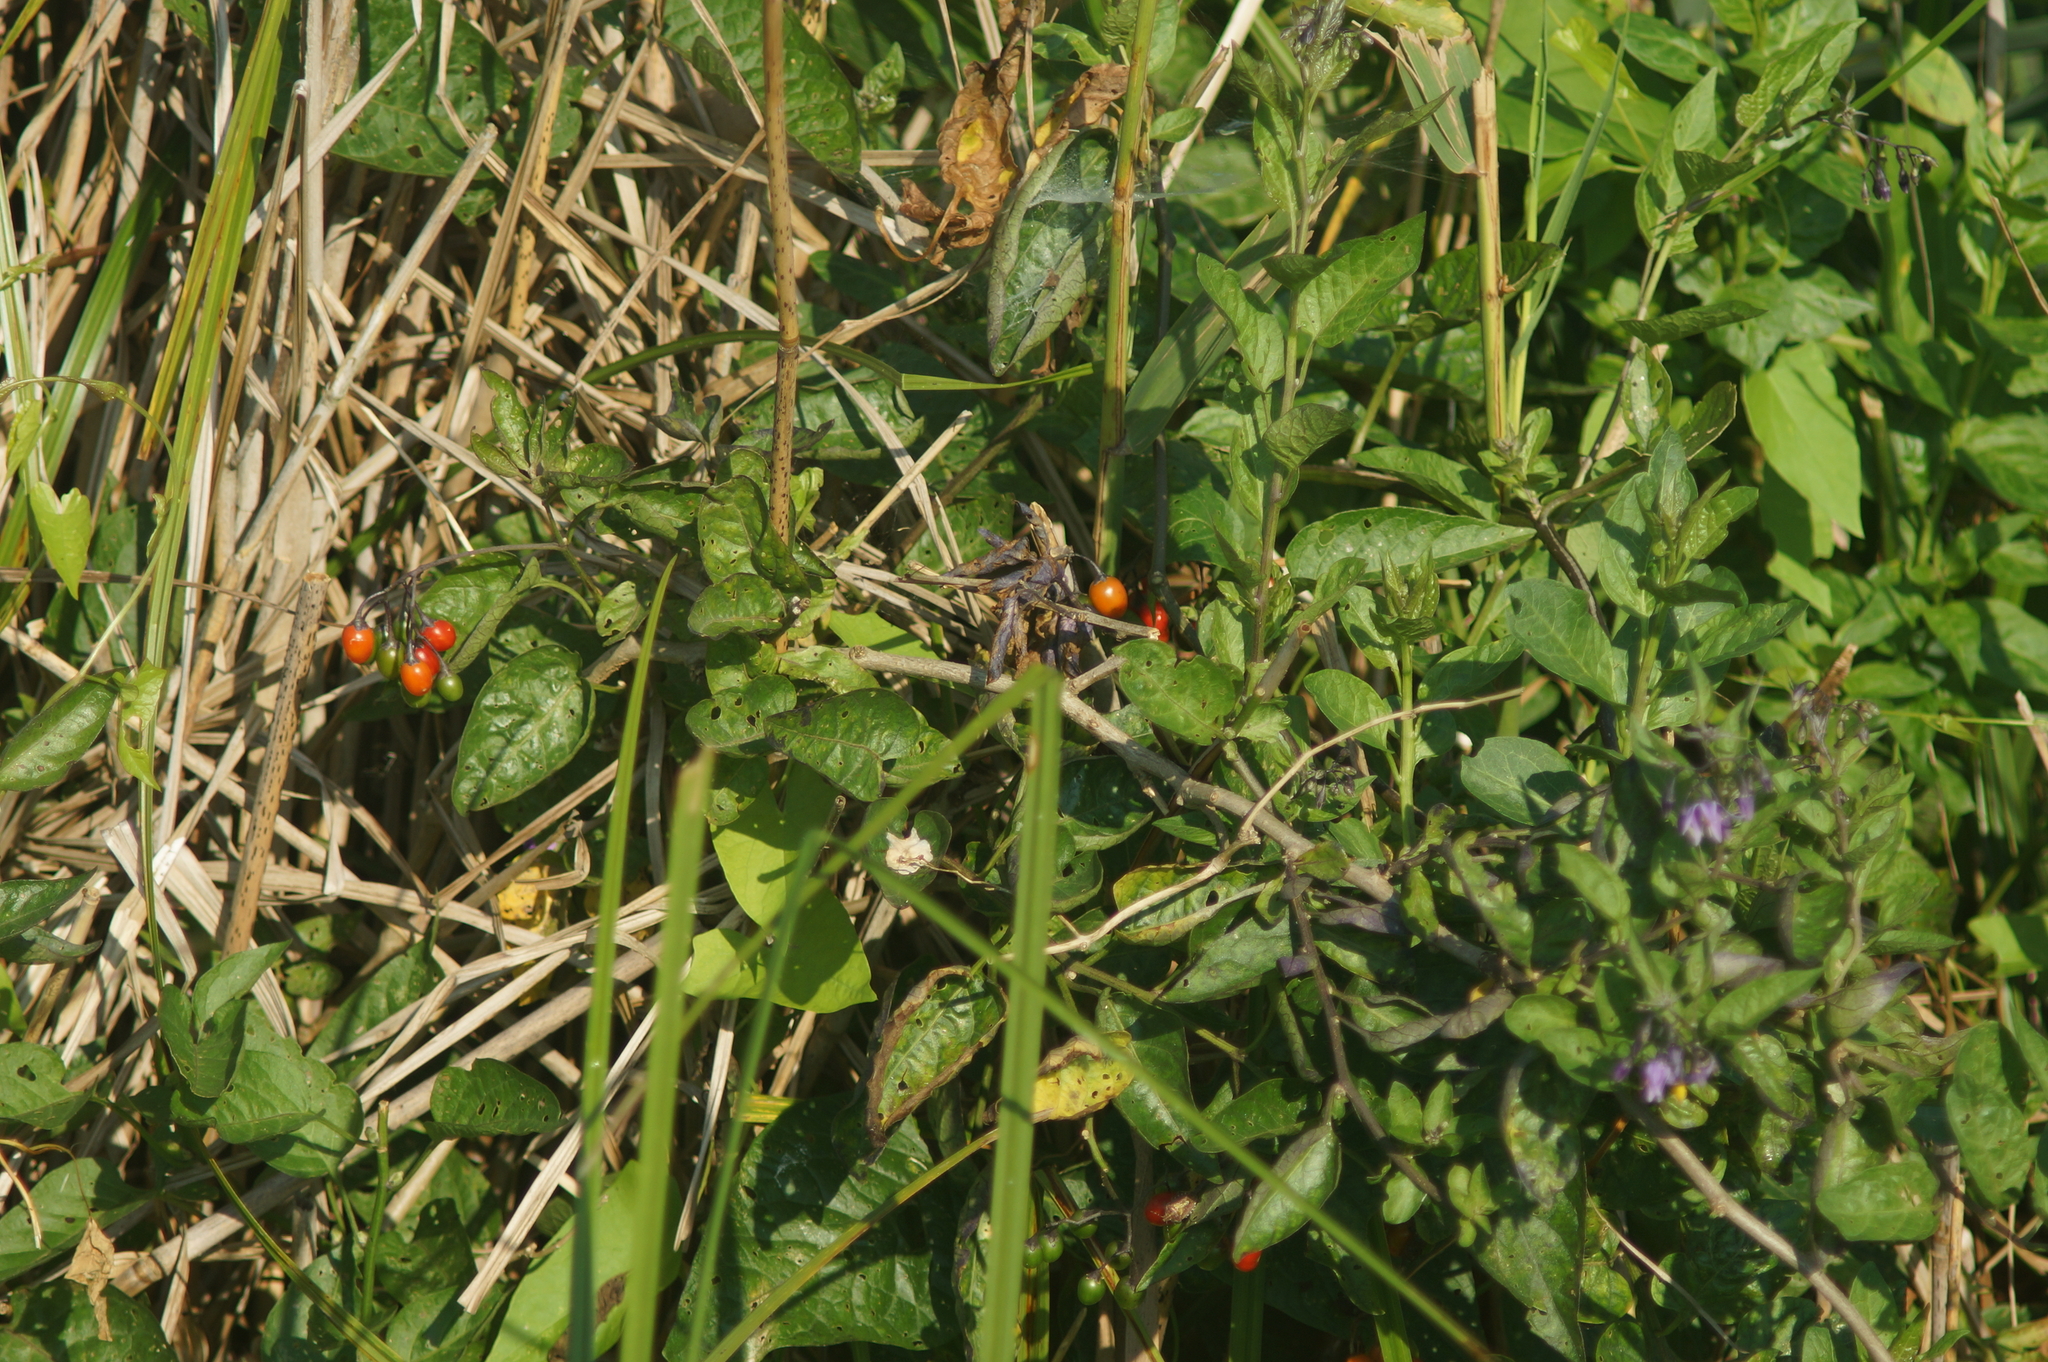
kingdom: Plantae
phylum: Tracheophyta
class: Magnoliopsida
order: Solanales
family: Solanaceae
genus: Solanum
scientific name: Solanum dulcamara
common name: Climbing nightshade
